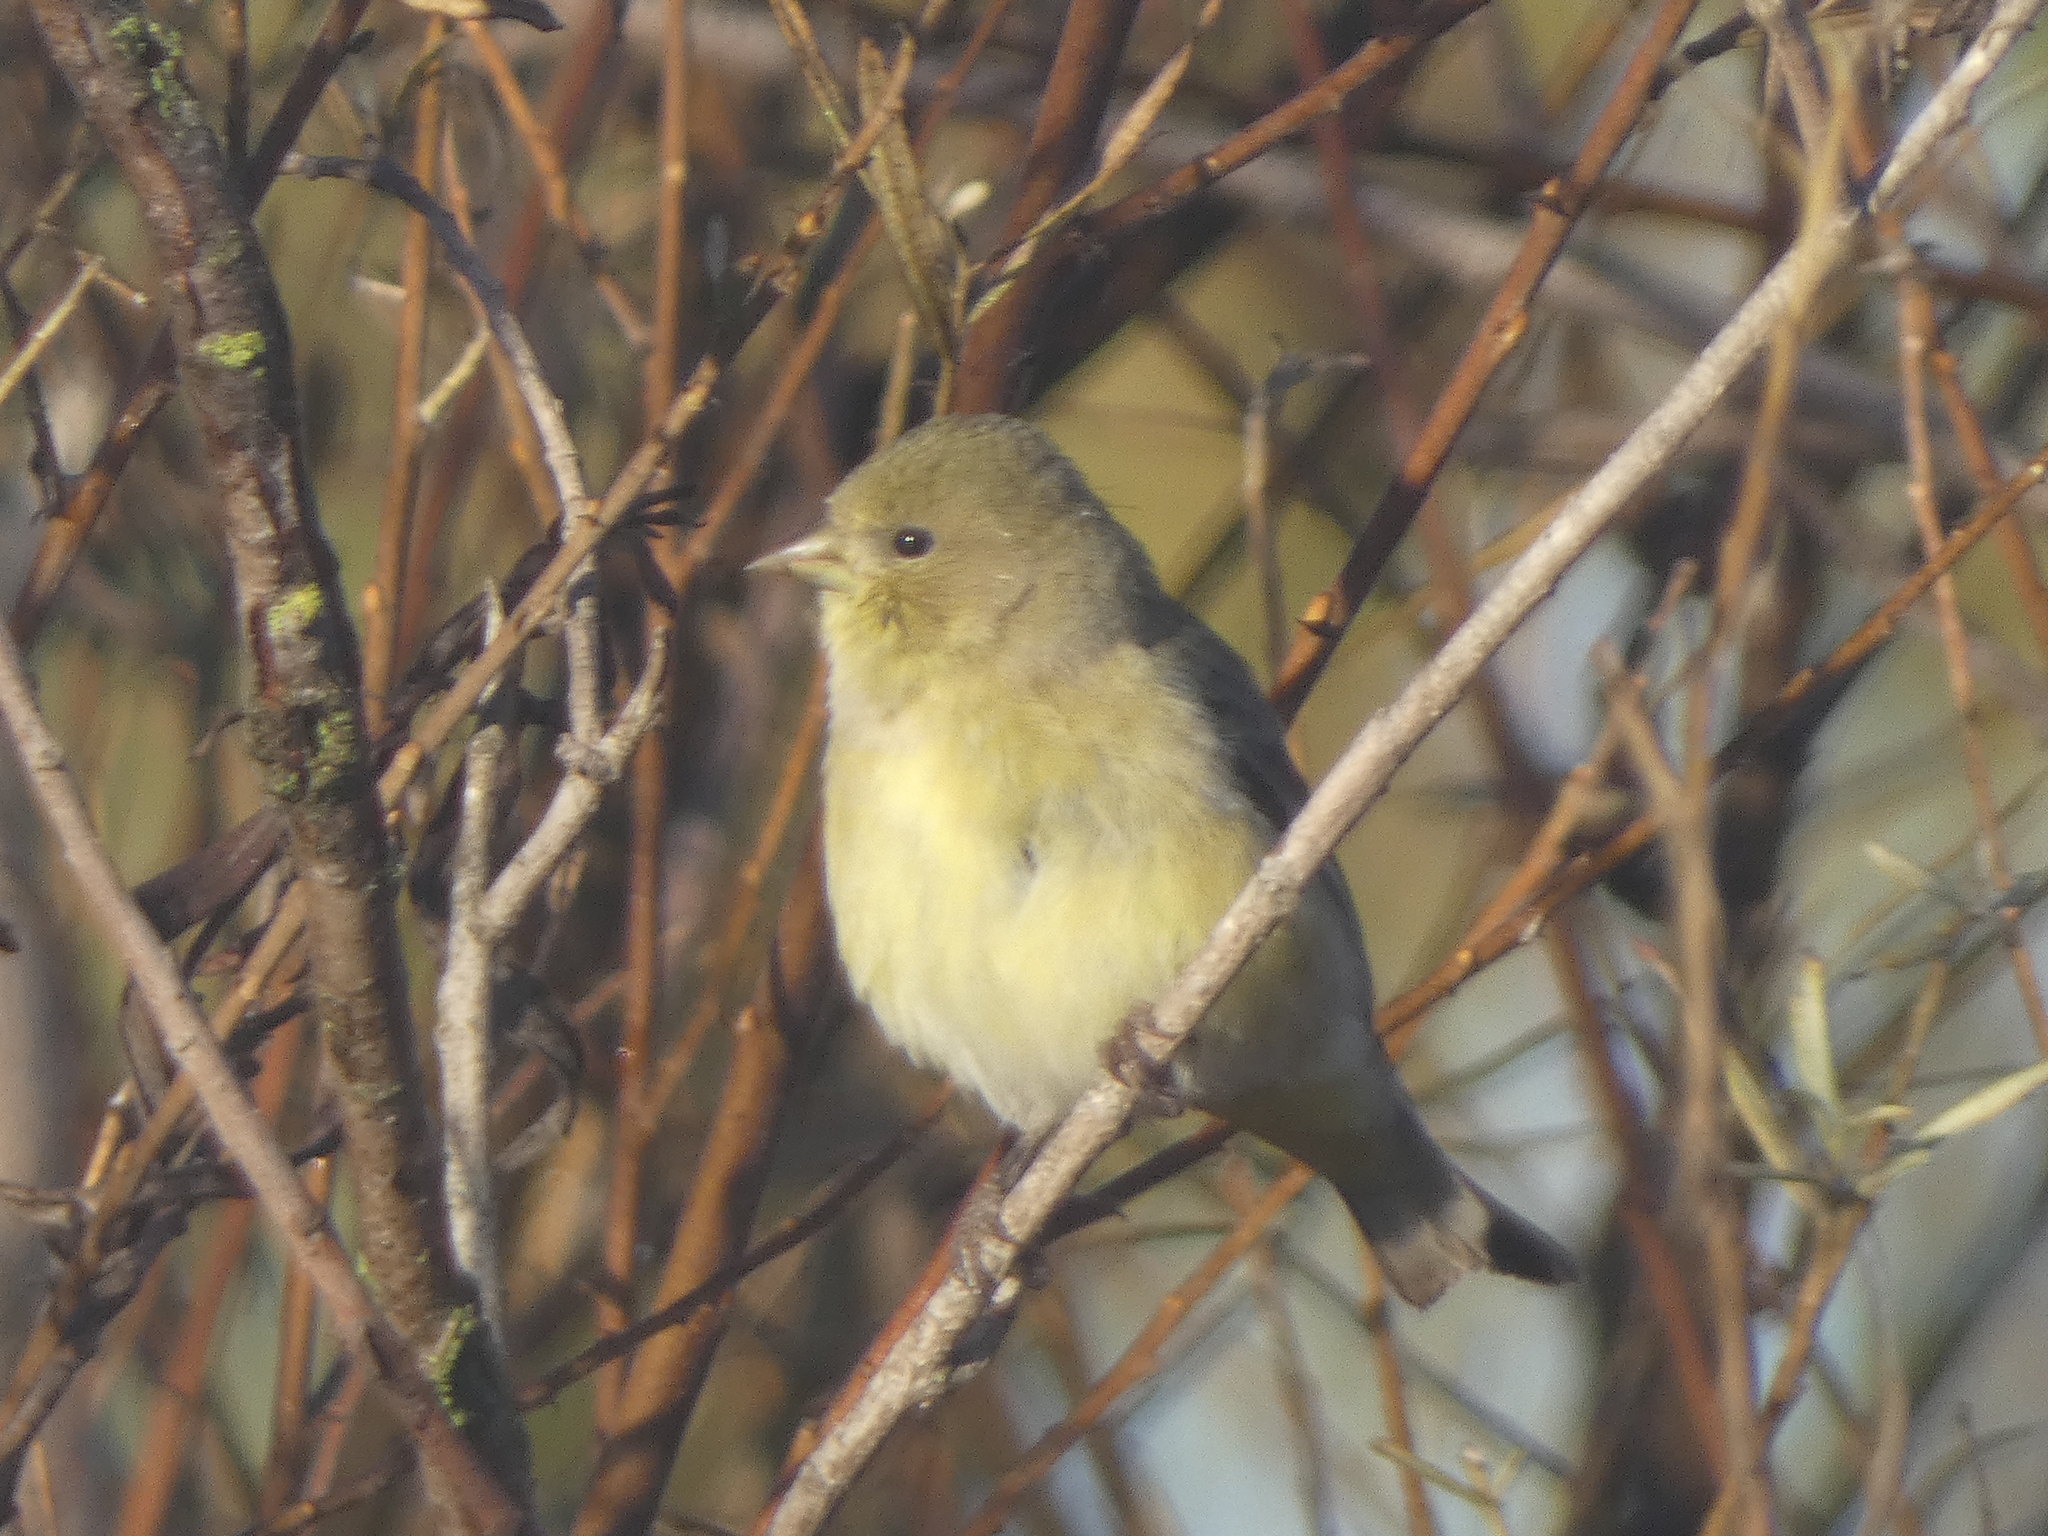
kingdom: Animalia
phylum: Chordata
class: Aves
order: Passeriformes
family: Fringillidae
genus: Spinus
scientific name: Spinus psaltria
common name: Lesser goldfinch
